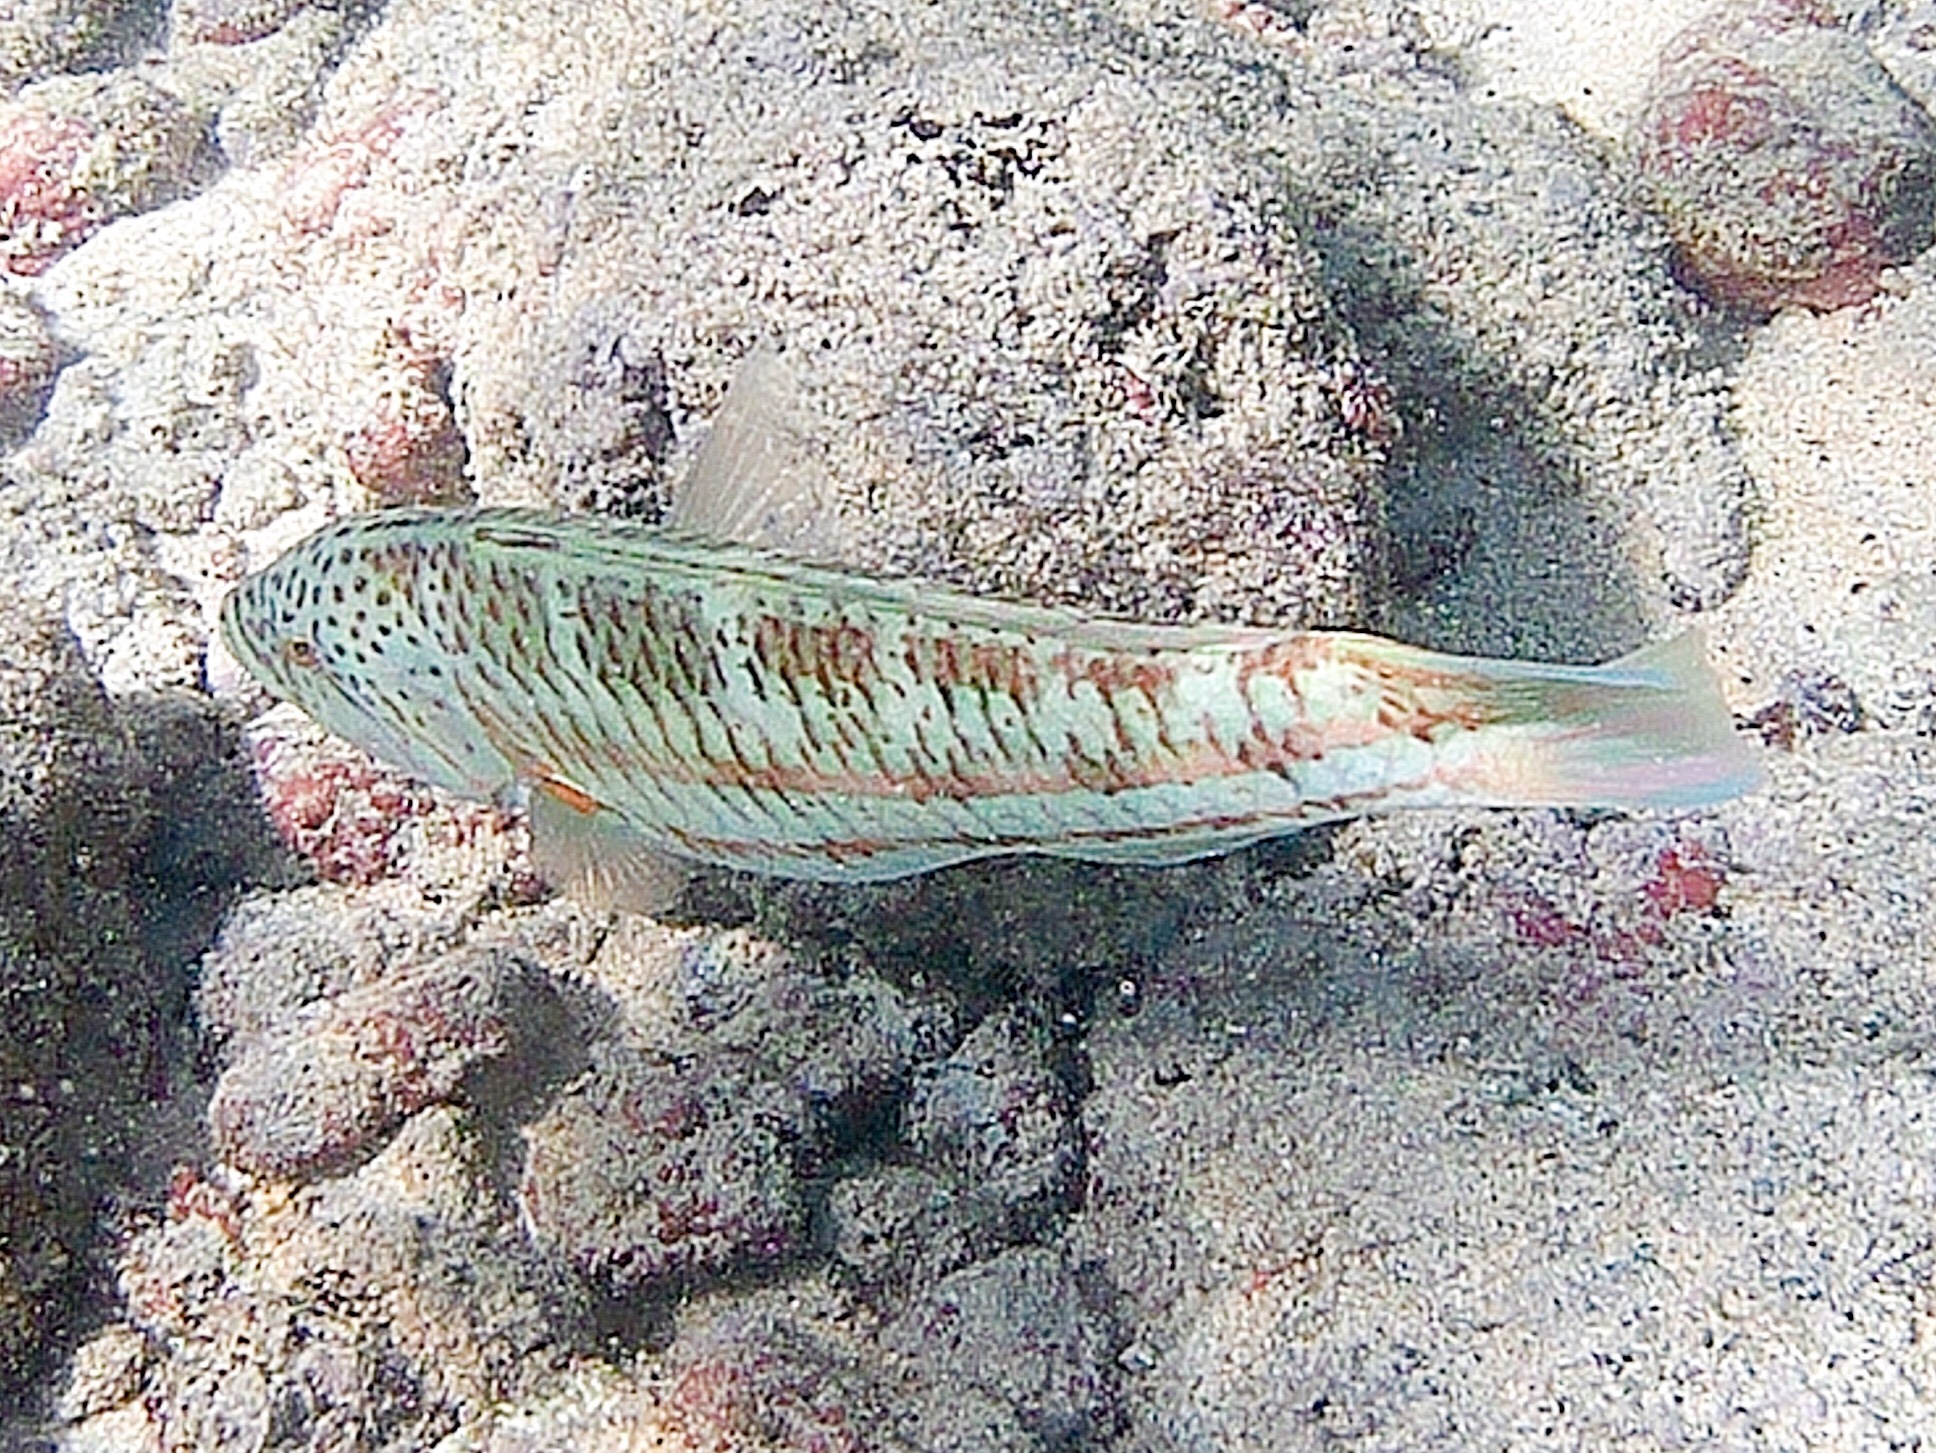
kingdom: Animalia
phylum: Chordata
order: Perciformes
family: Labridae
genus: Thalassoma
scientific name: Thalassoma purpureum
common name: Parrotfish
